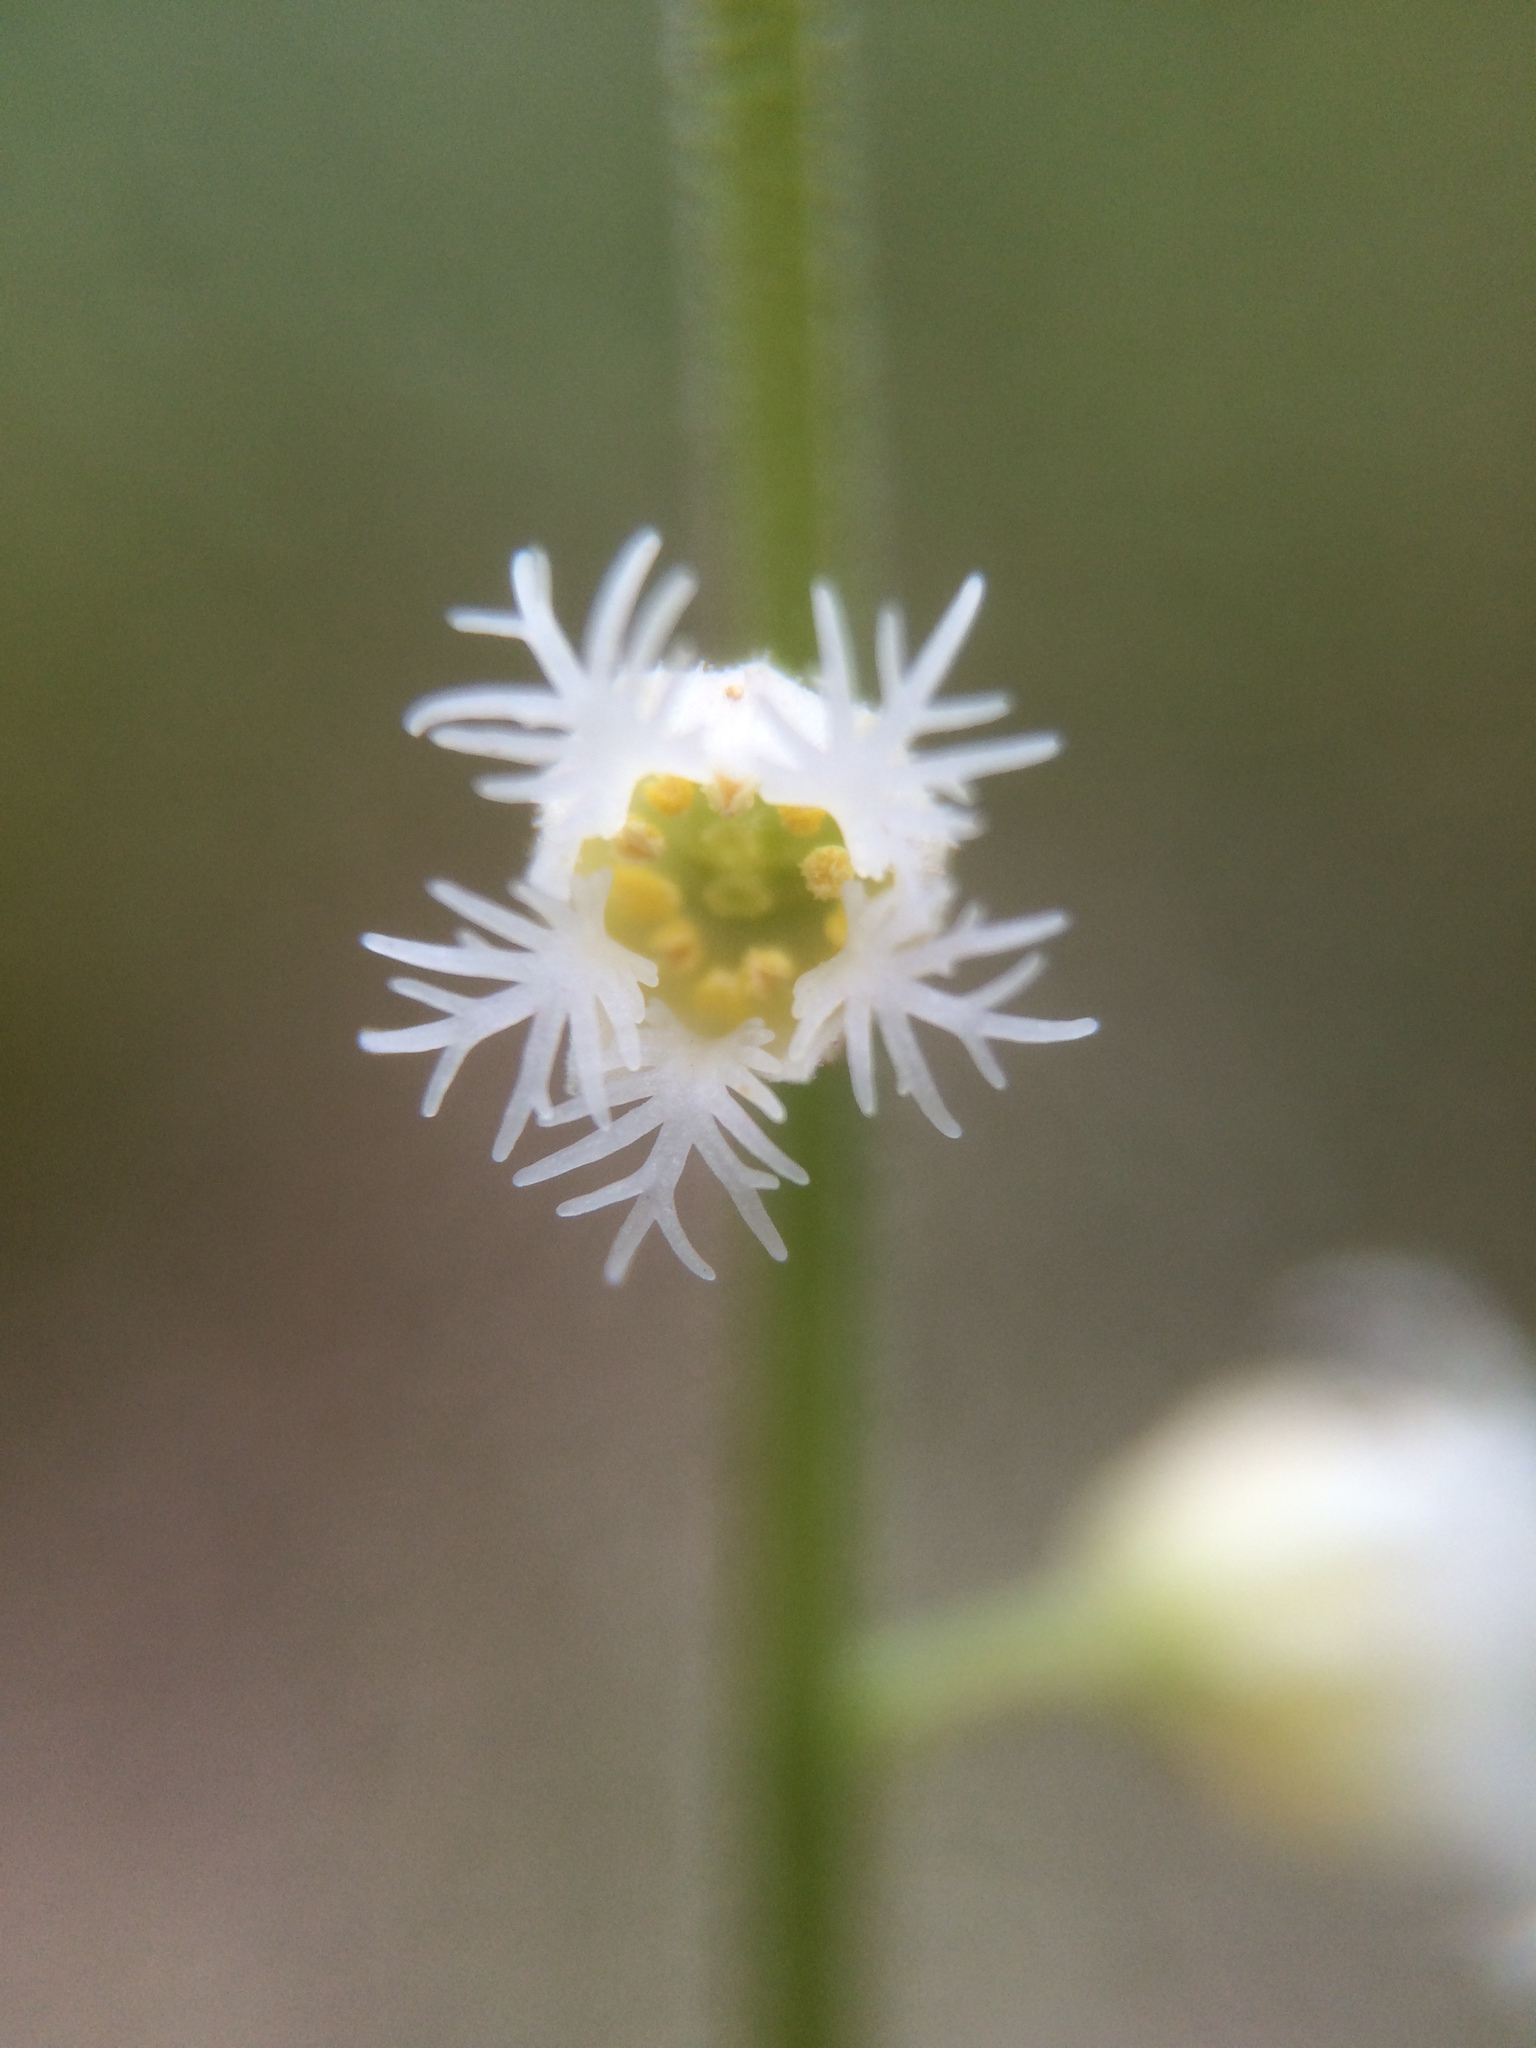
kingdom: Plantae
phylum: Tracheophyta
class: Magnoliopsida
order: Saxifragales
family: Saxifragaceae
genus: Mitella
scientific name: Mitella diphylla
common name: Coolwort
